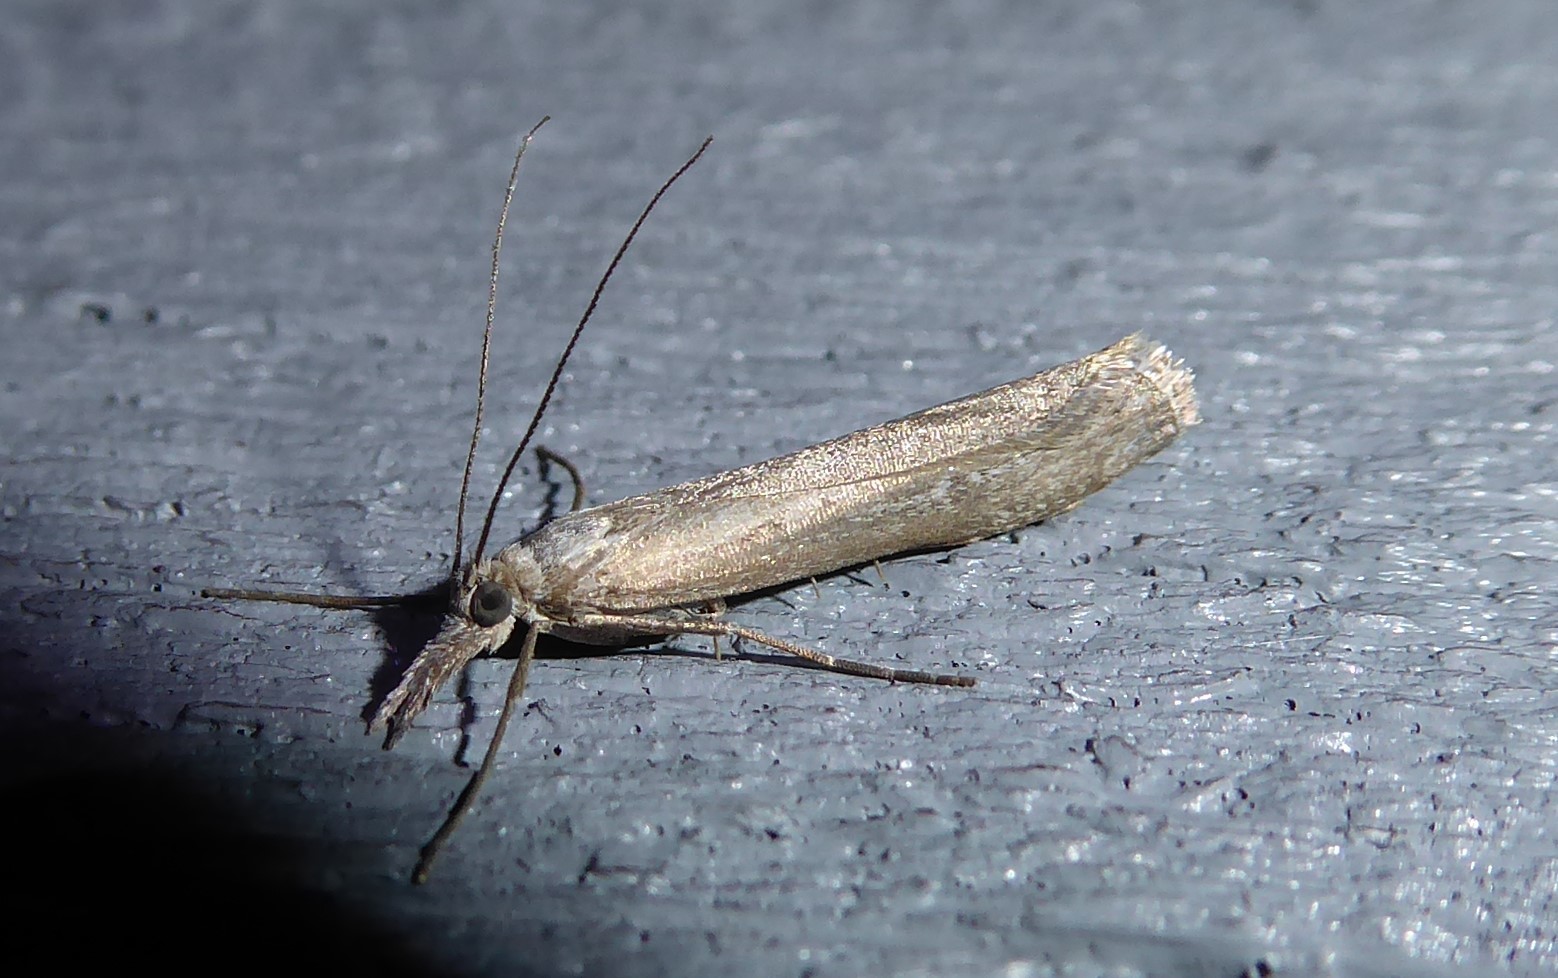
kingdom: Animalia
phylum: Arthropoda
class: Insecta
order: Lepidoptera
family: Crambidae
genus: Orocrambus
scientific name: Orocrambus cyclopicus
